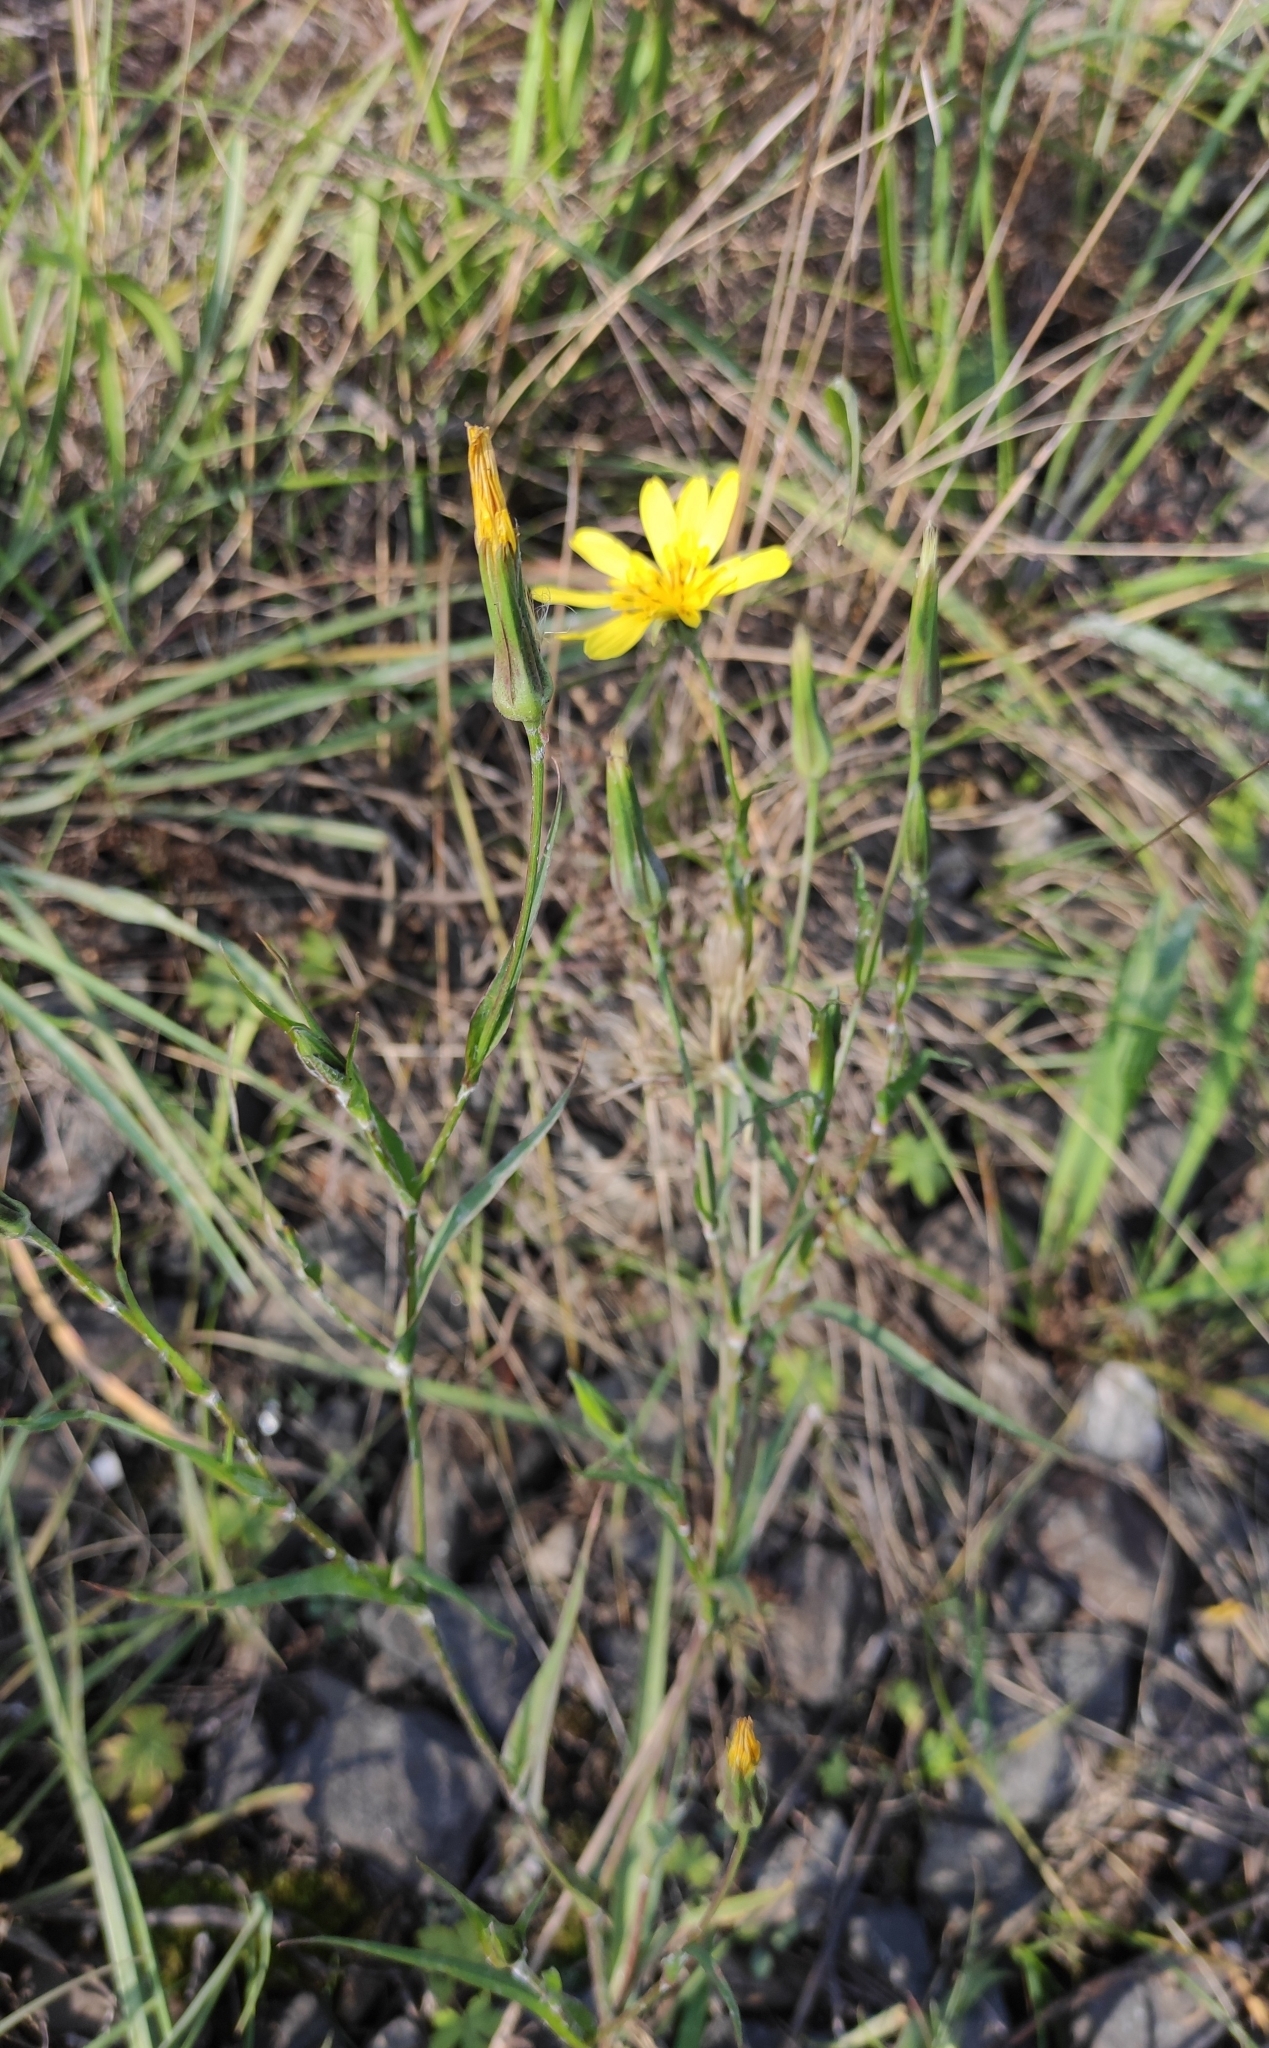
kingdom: Plantae
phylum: Tracheophyta
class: Magnoliopsida
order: Asterales
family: Asteraceae
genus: Tragopogon
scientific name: Tragopogon orientalis
